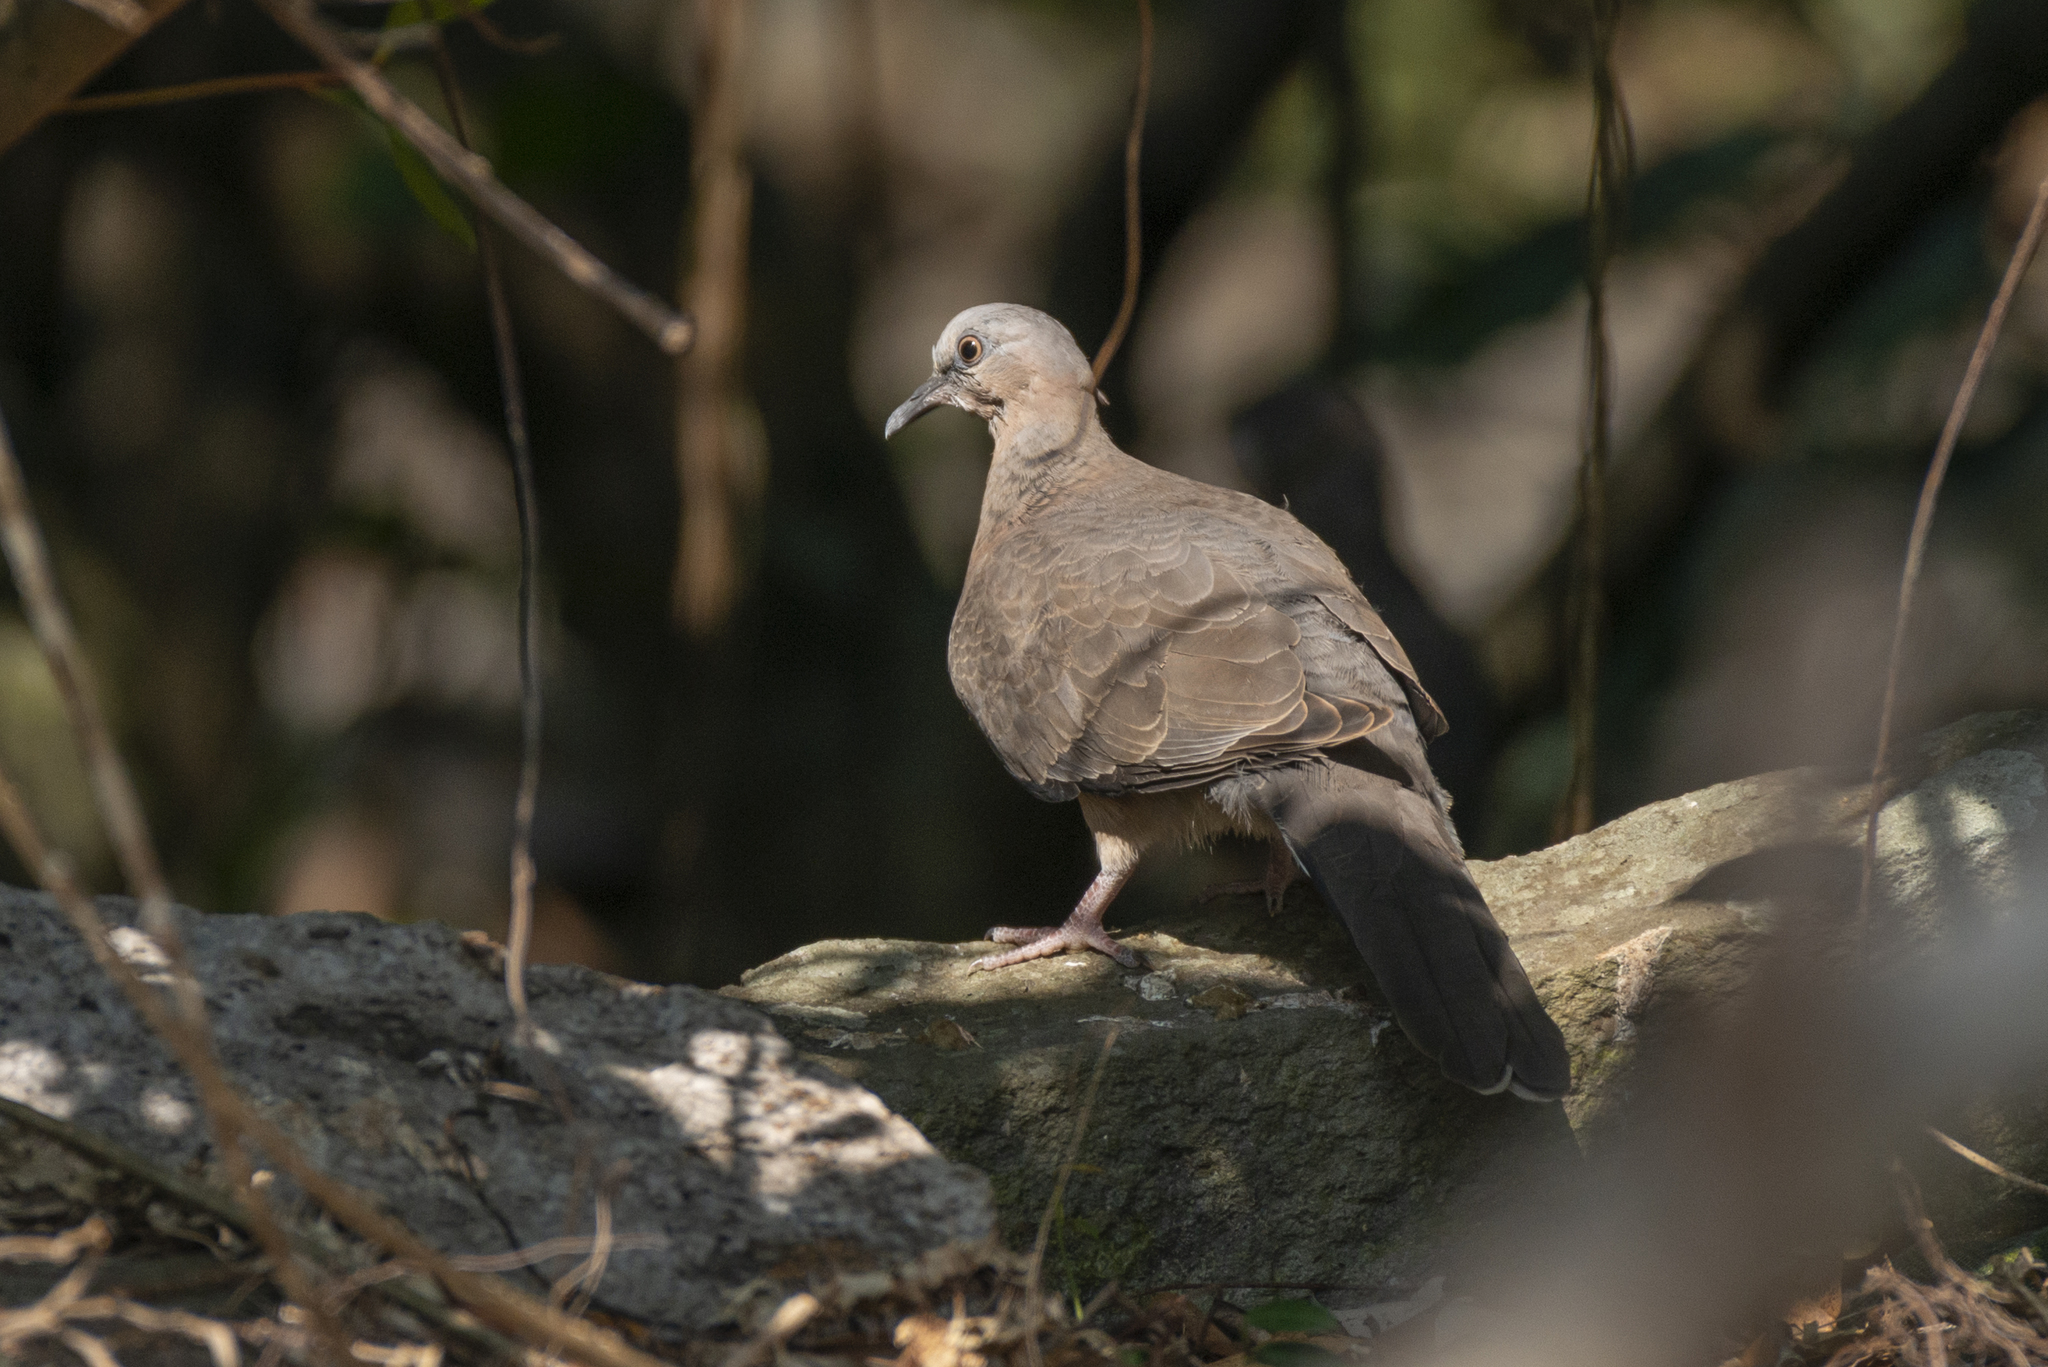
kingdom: Animalia
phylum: Chordata
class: Aves
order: Columbiformes
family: Columbidae
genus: Spilopelia
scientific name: Spilopelia chinensis
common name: Spotted dove
